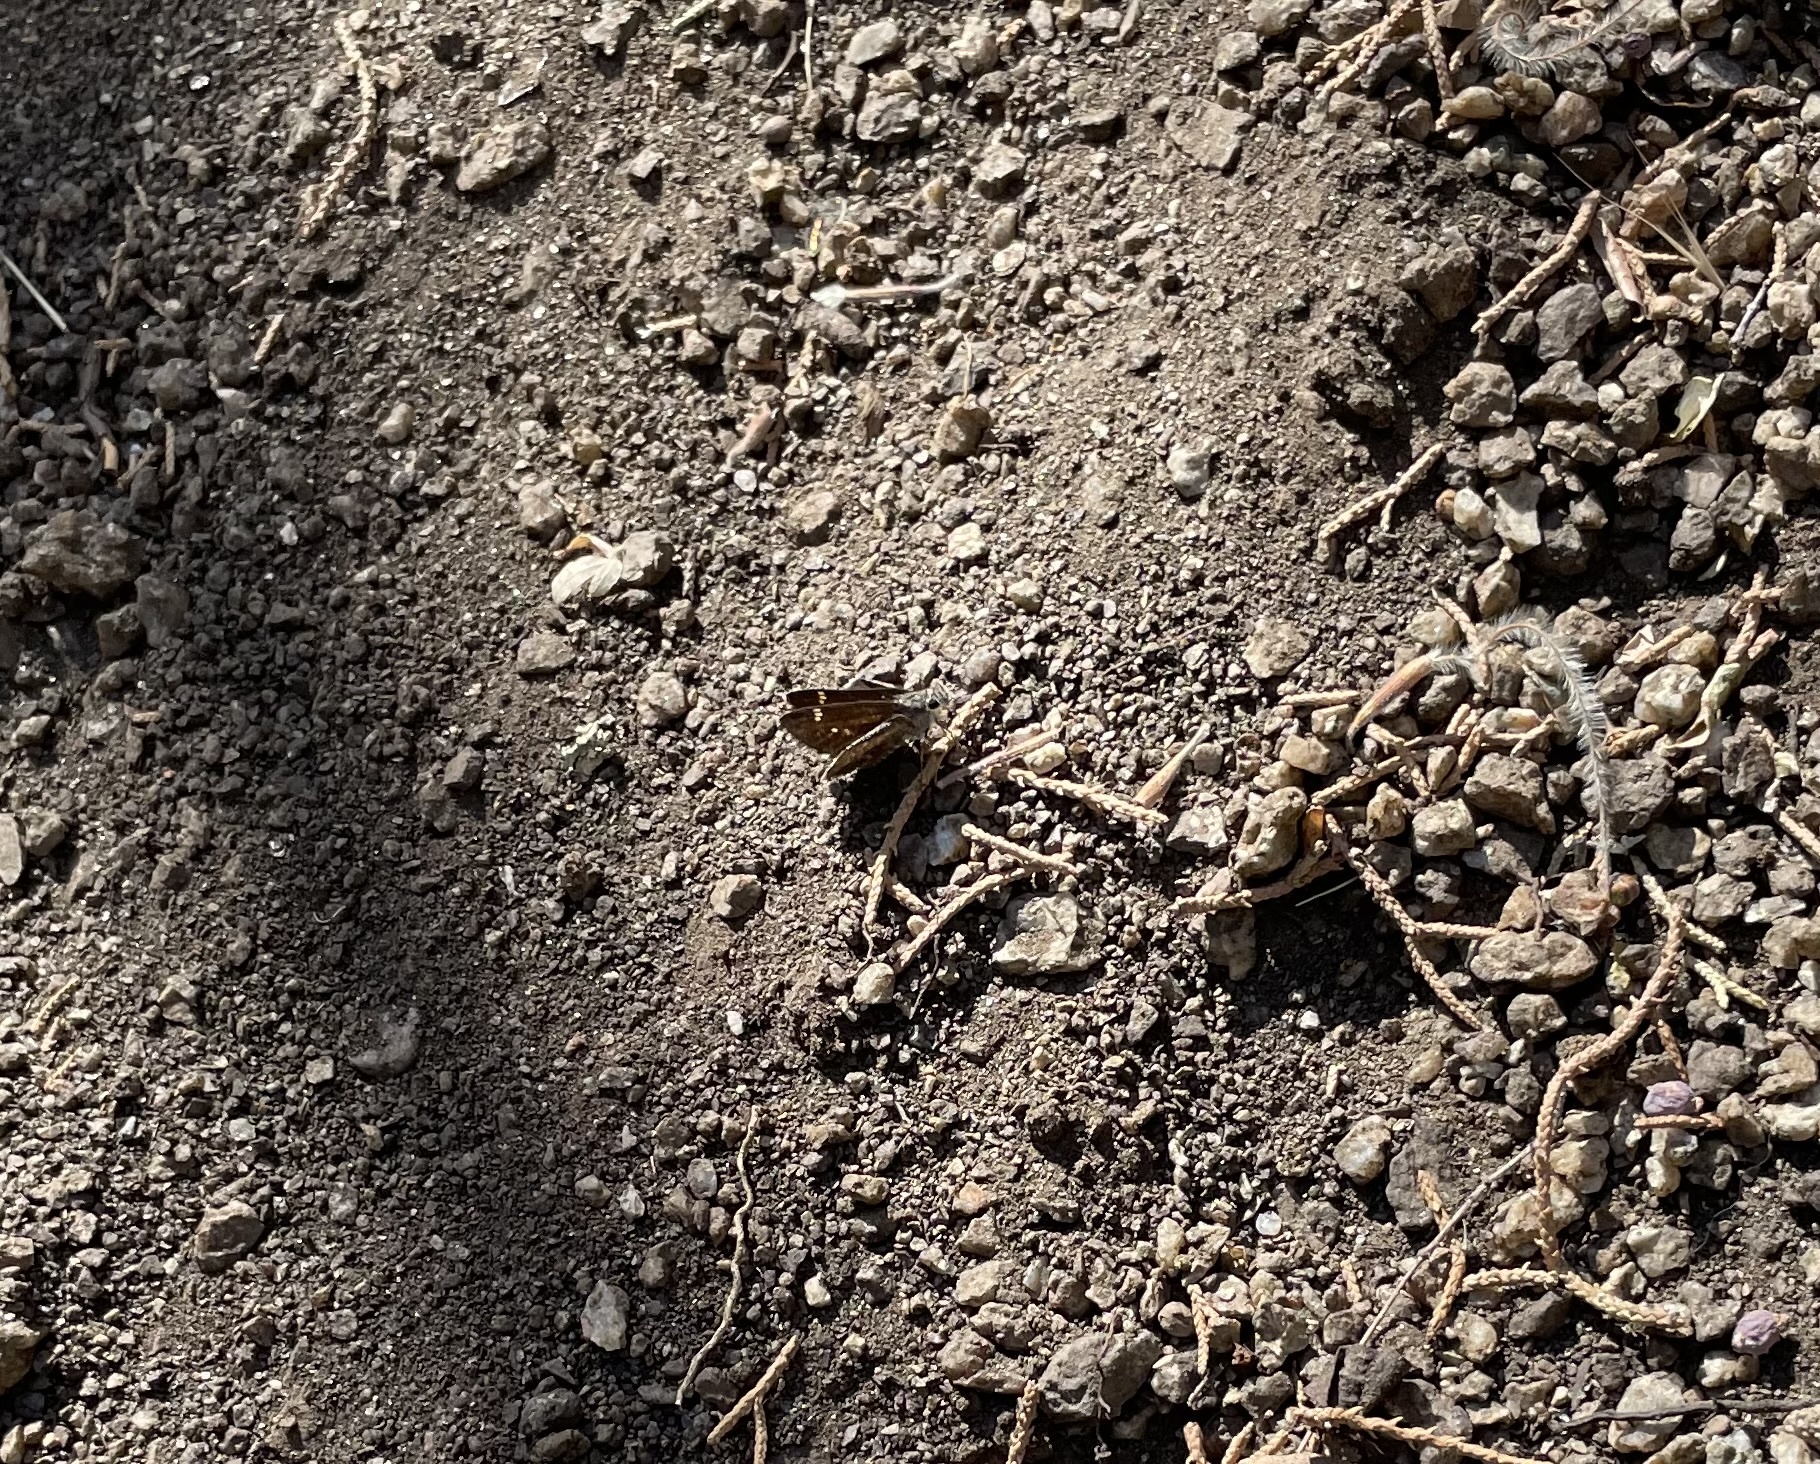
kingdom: Animalia
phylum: Arthropoda
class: Insecta
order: Lepidoptera
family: Hesperiidae
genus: Mastor
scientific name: Mastor eos
